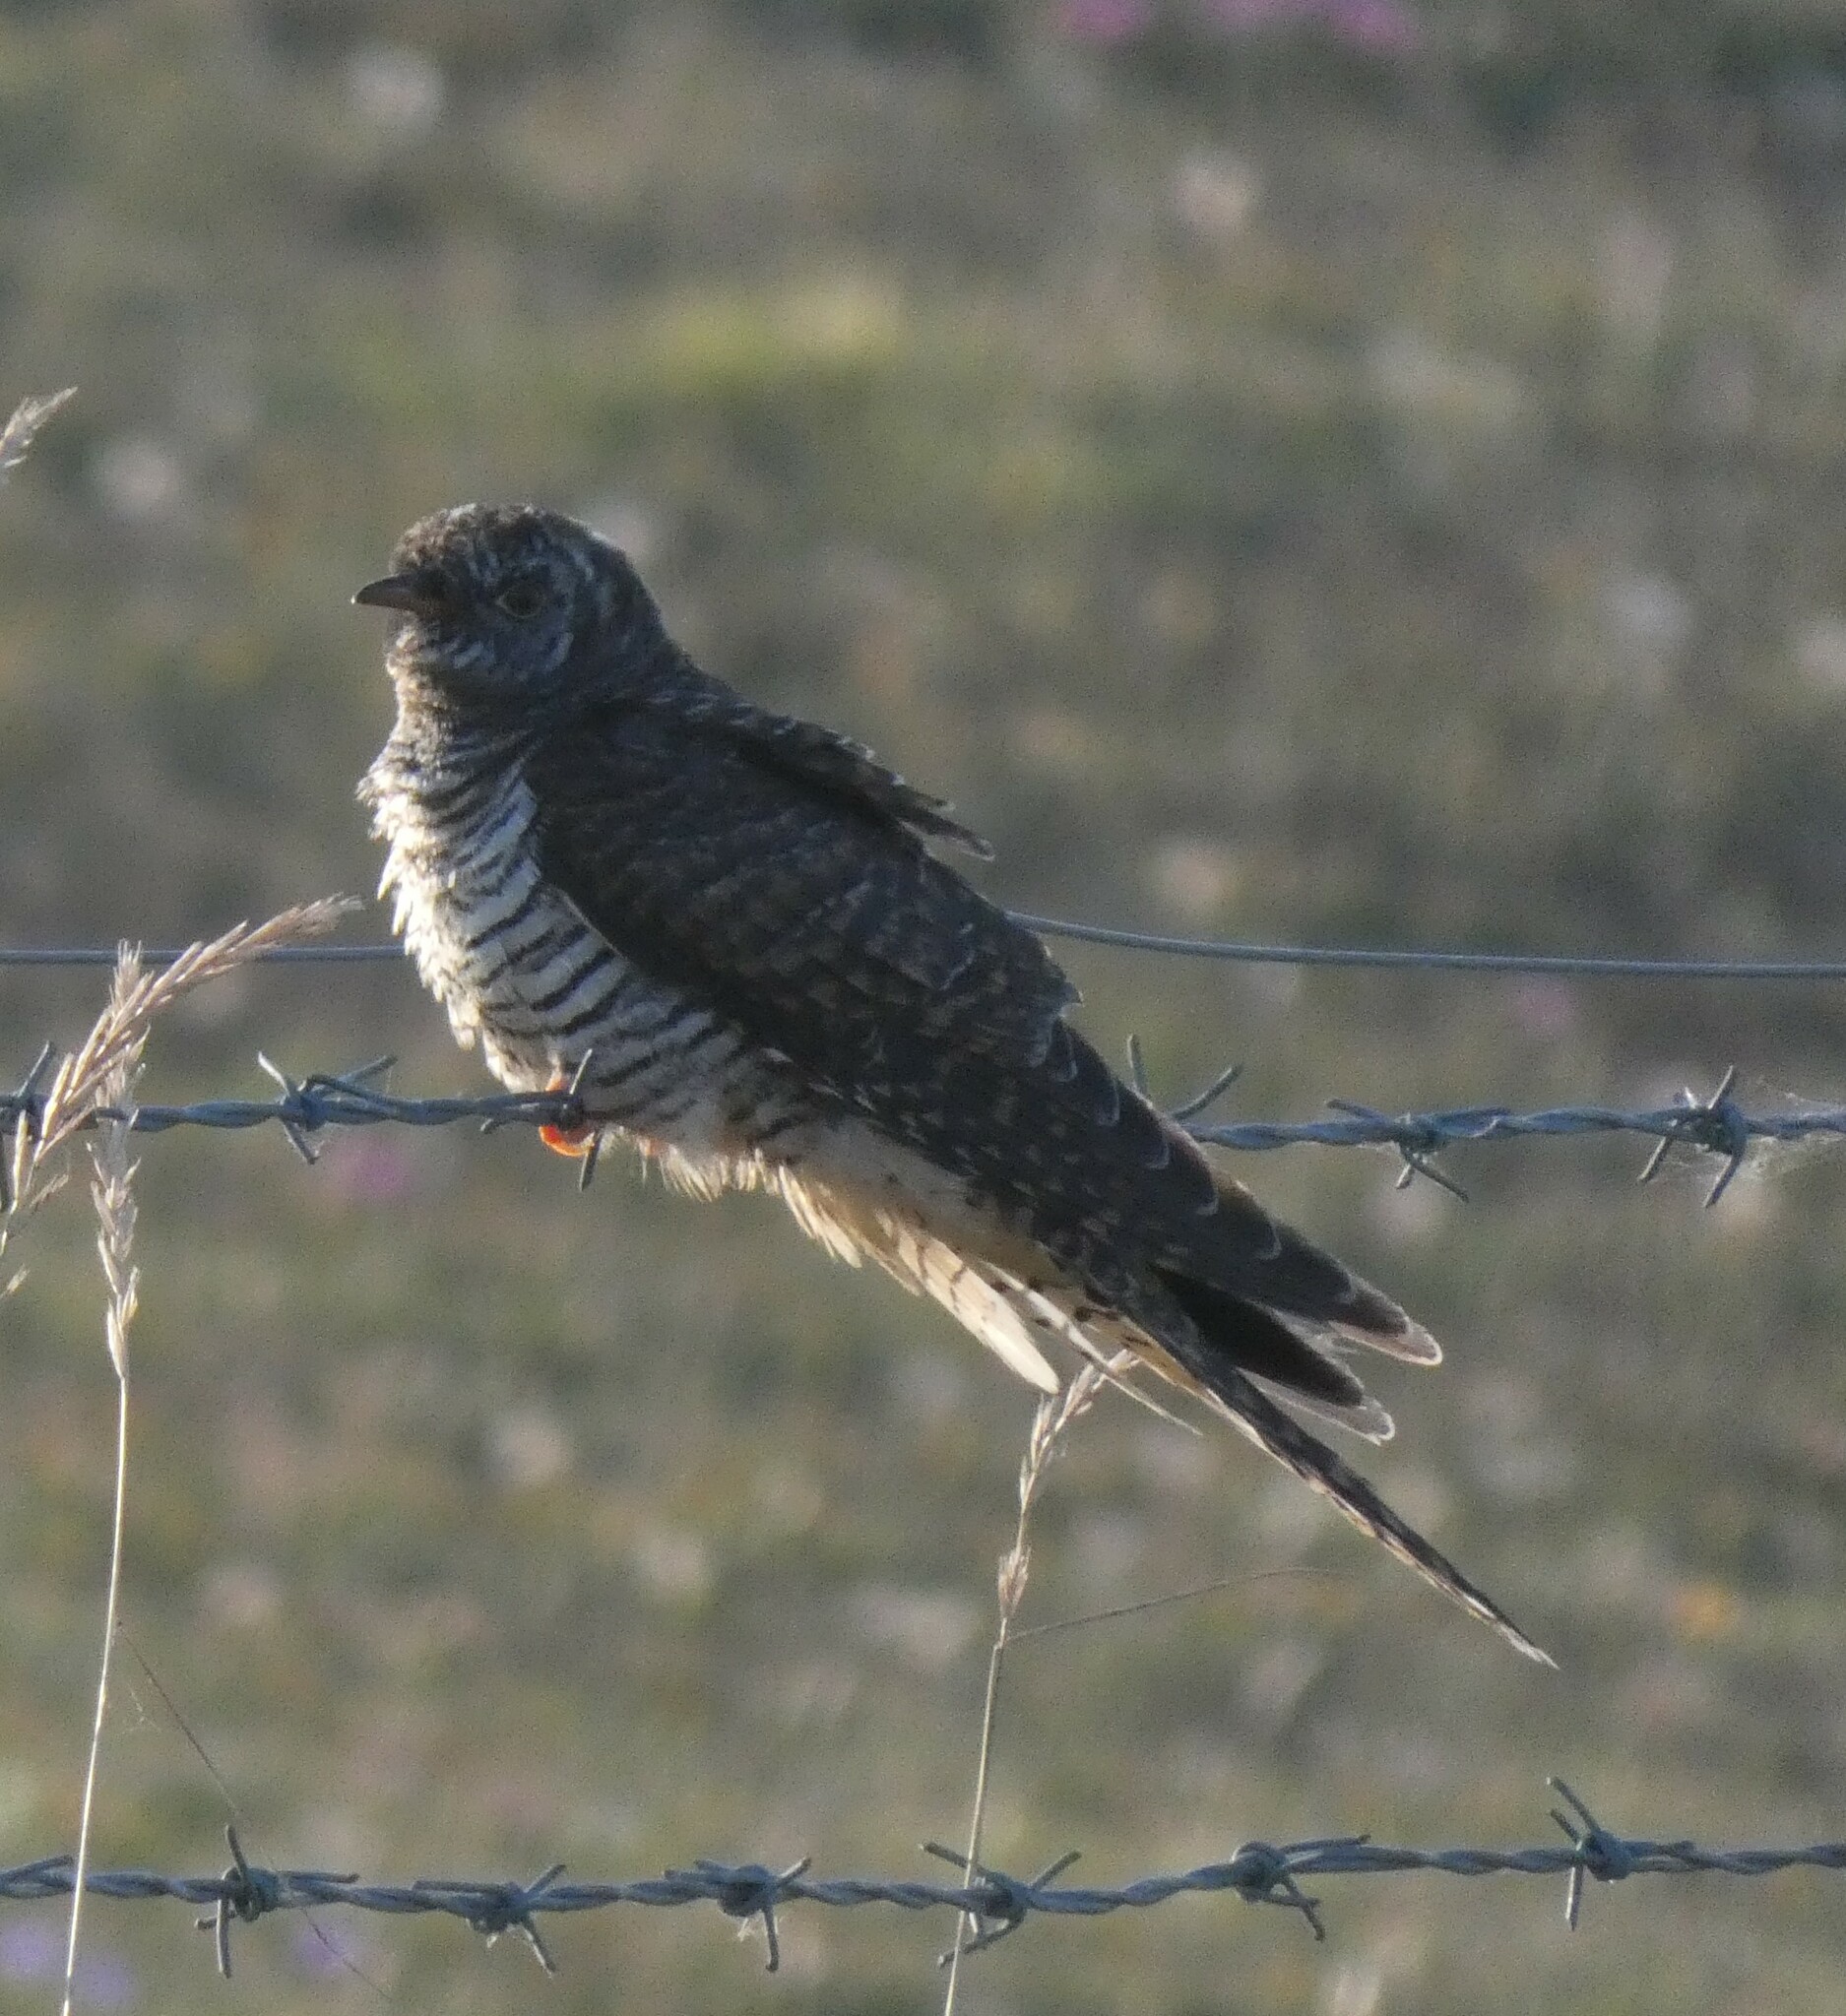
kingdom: Animalia
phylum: Chordata
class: Aves
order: Cuculiformes
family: Cuculidae
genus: Cuculus
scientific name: Cuculus canorus
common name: Common cuckoo
